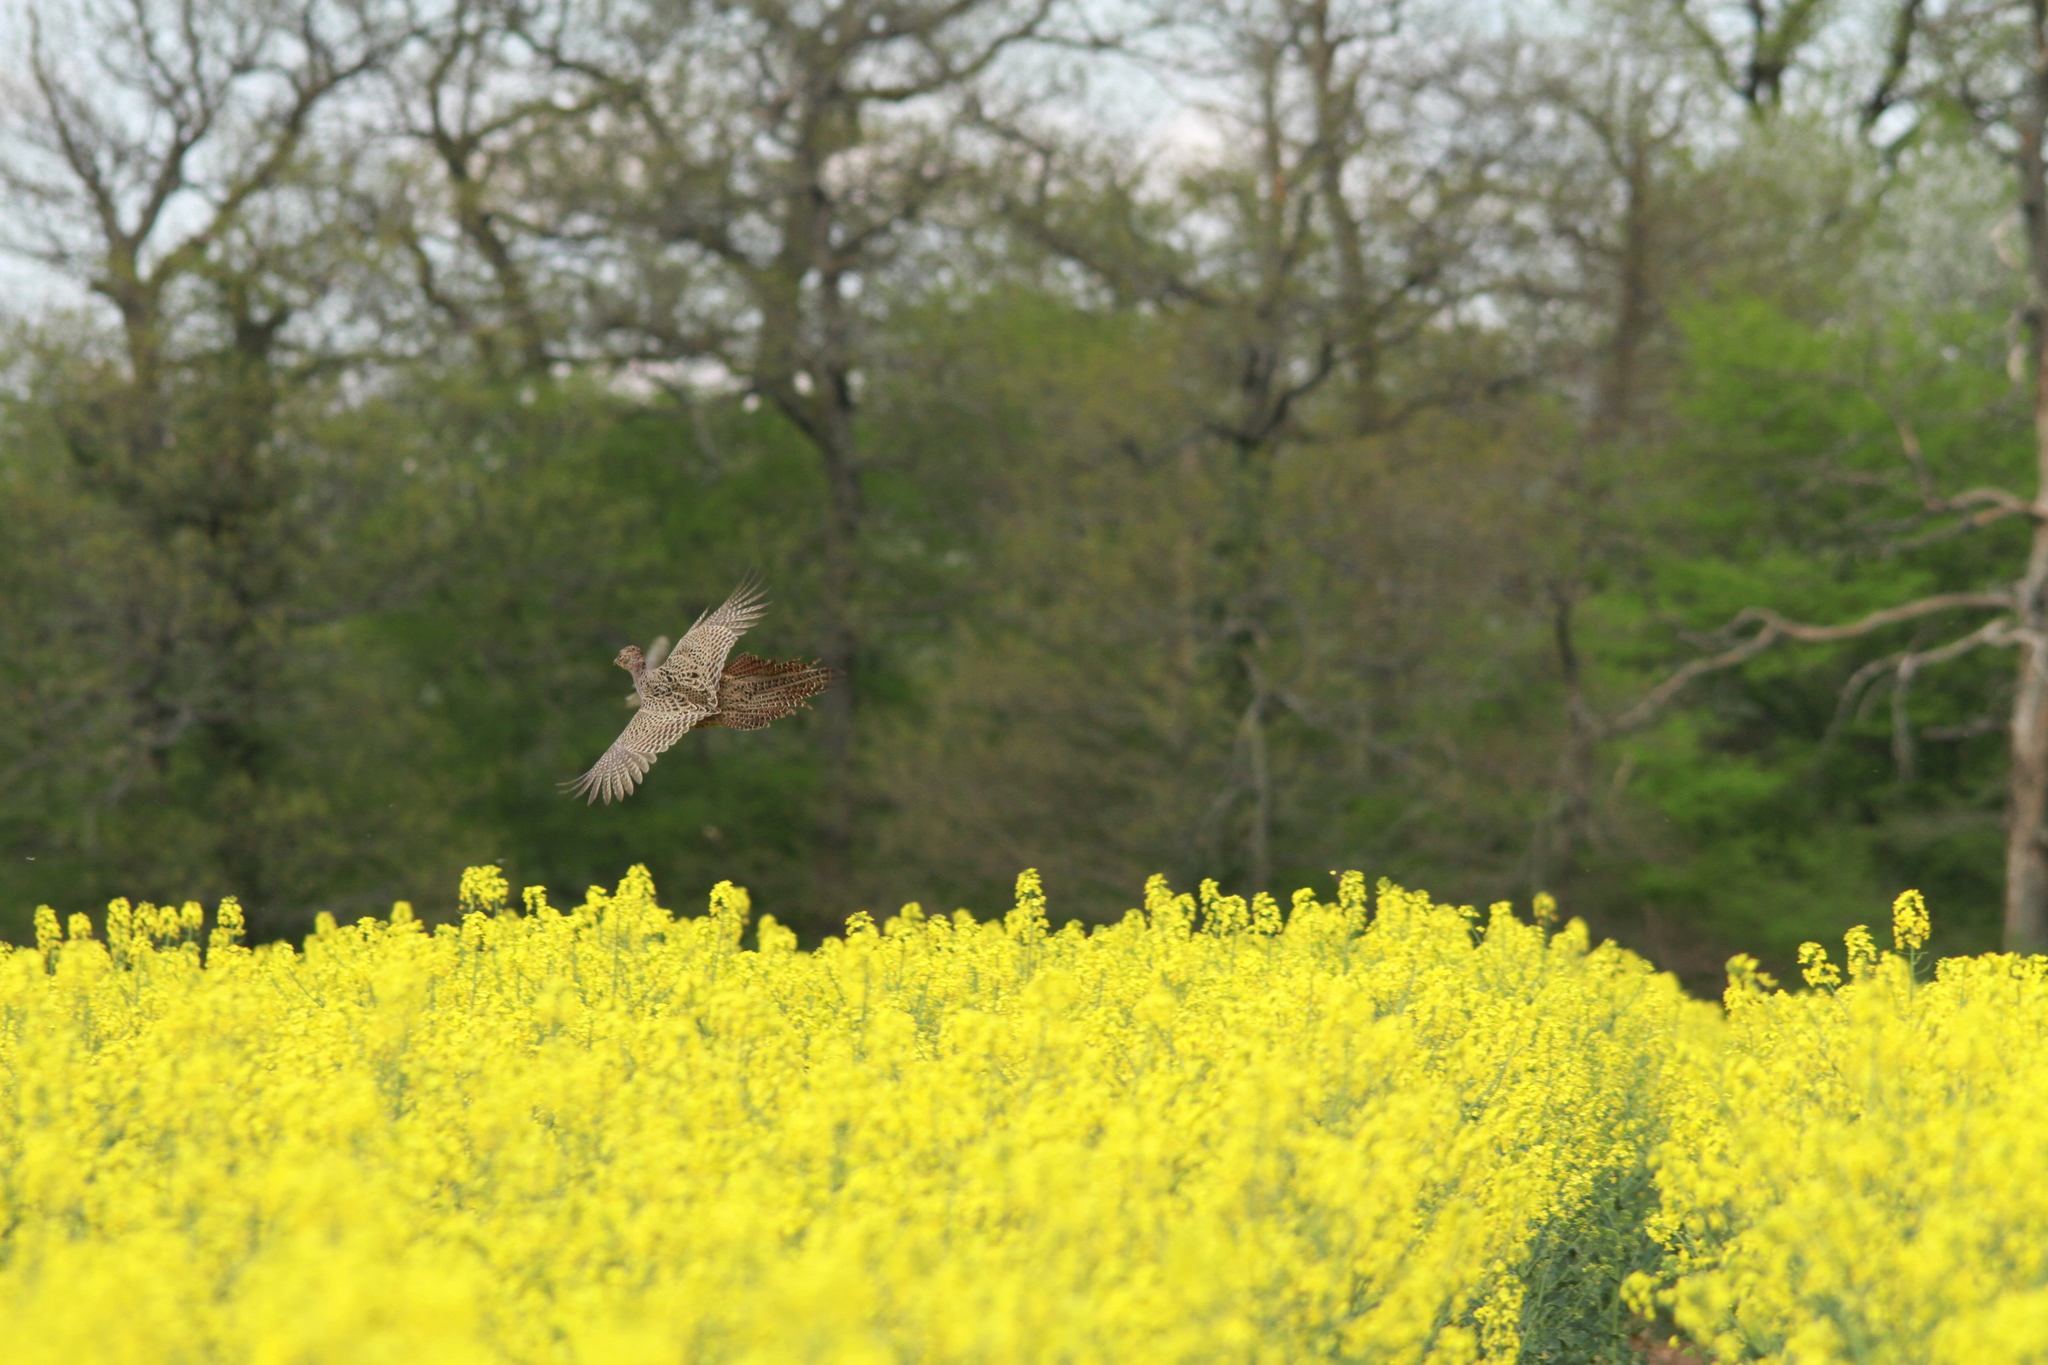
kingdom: Animalia
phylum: Chordata
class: Aves
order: Galliformes
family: Phasianidae
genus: Phasianus
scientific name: Phasianus colchicus
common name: Common pheasant
